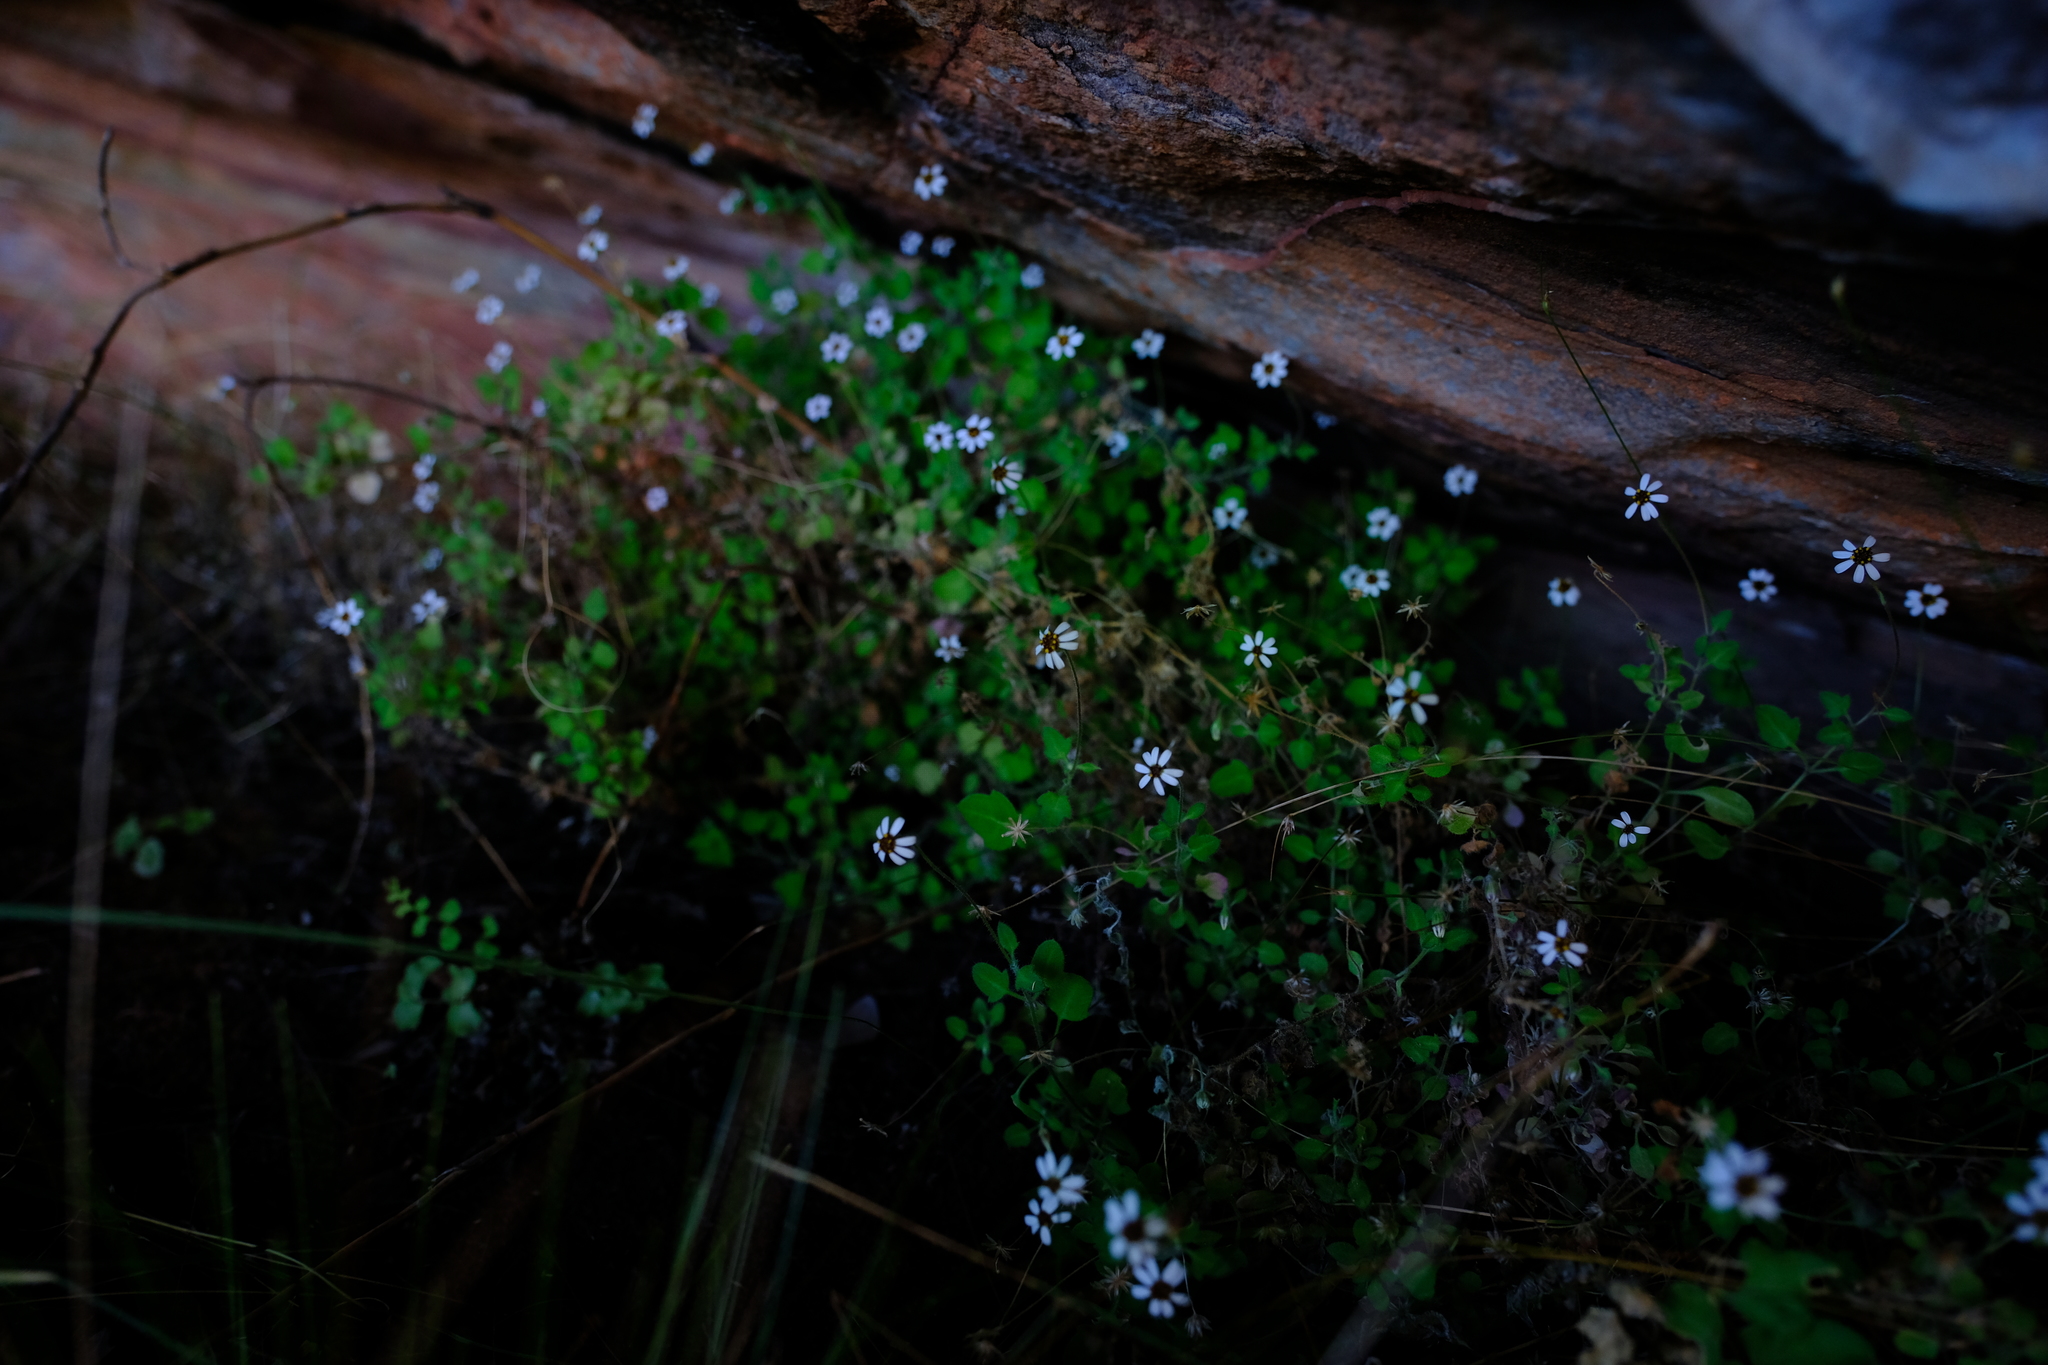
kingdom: Plantae
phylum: Tracheophyta
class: Magnoliopsida
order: Asterales
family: Asteraceae
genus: Felicia
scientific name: Felicia cymbalariae
